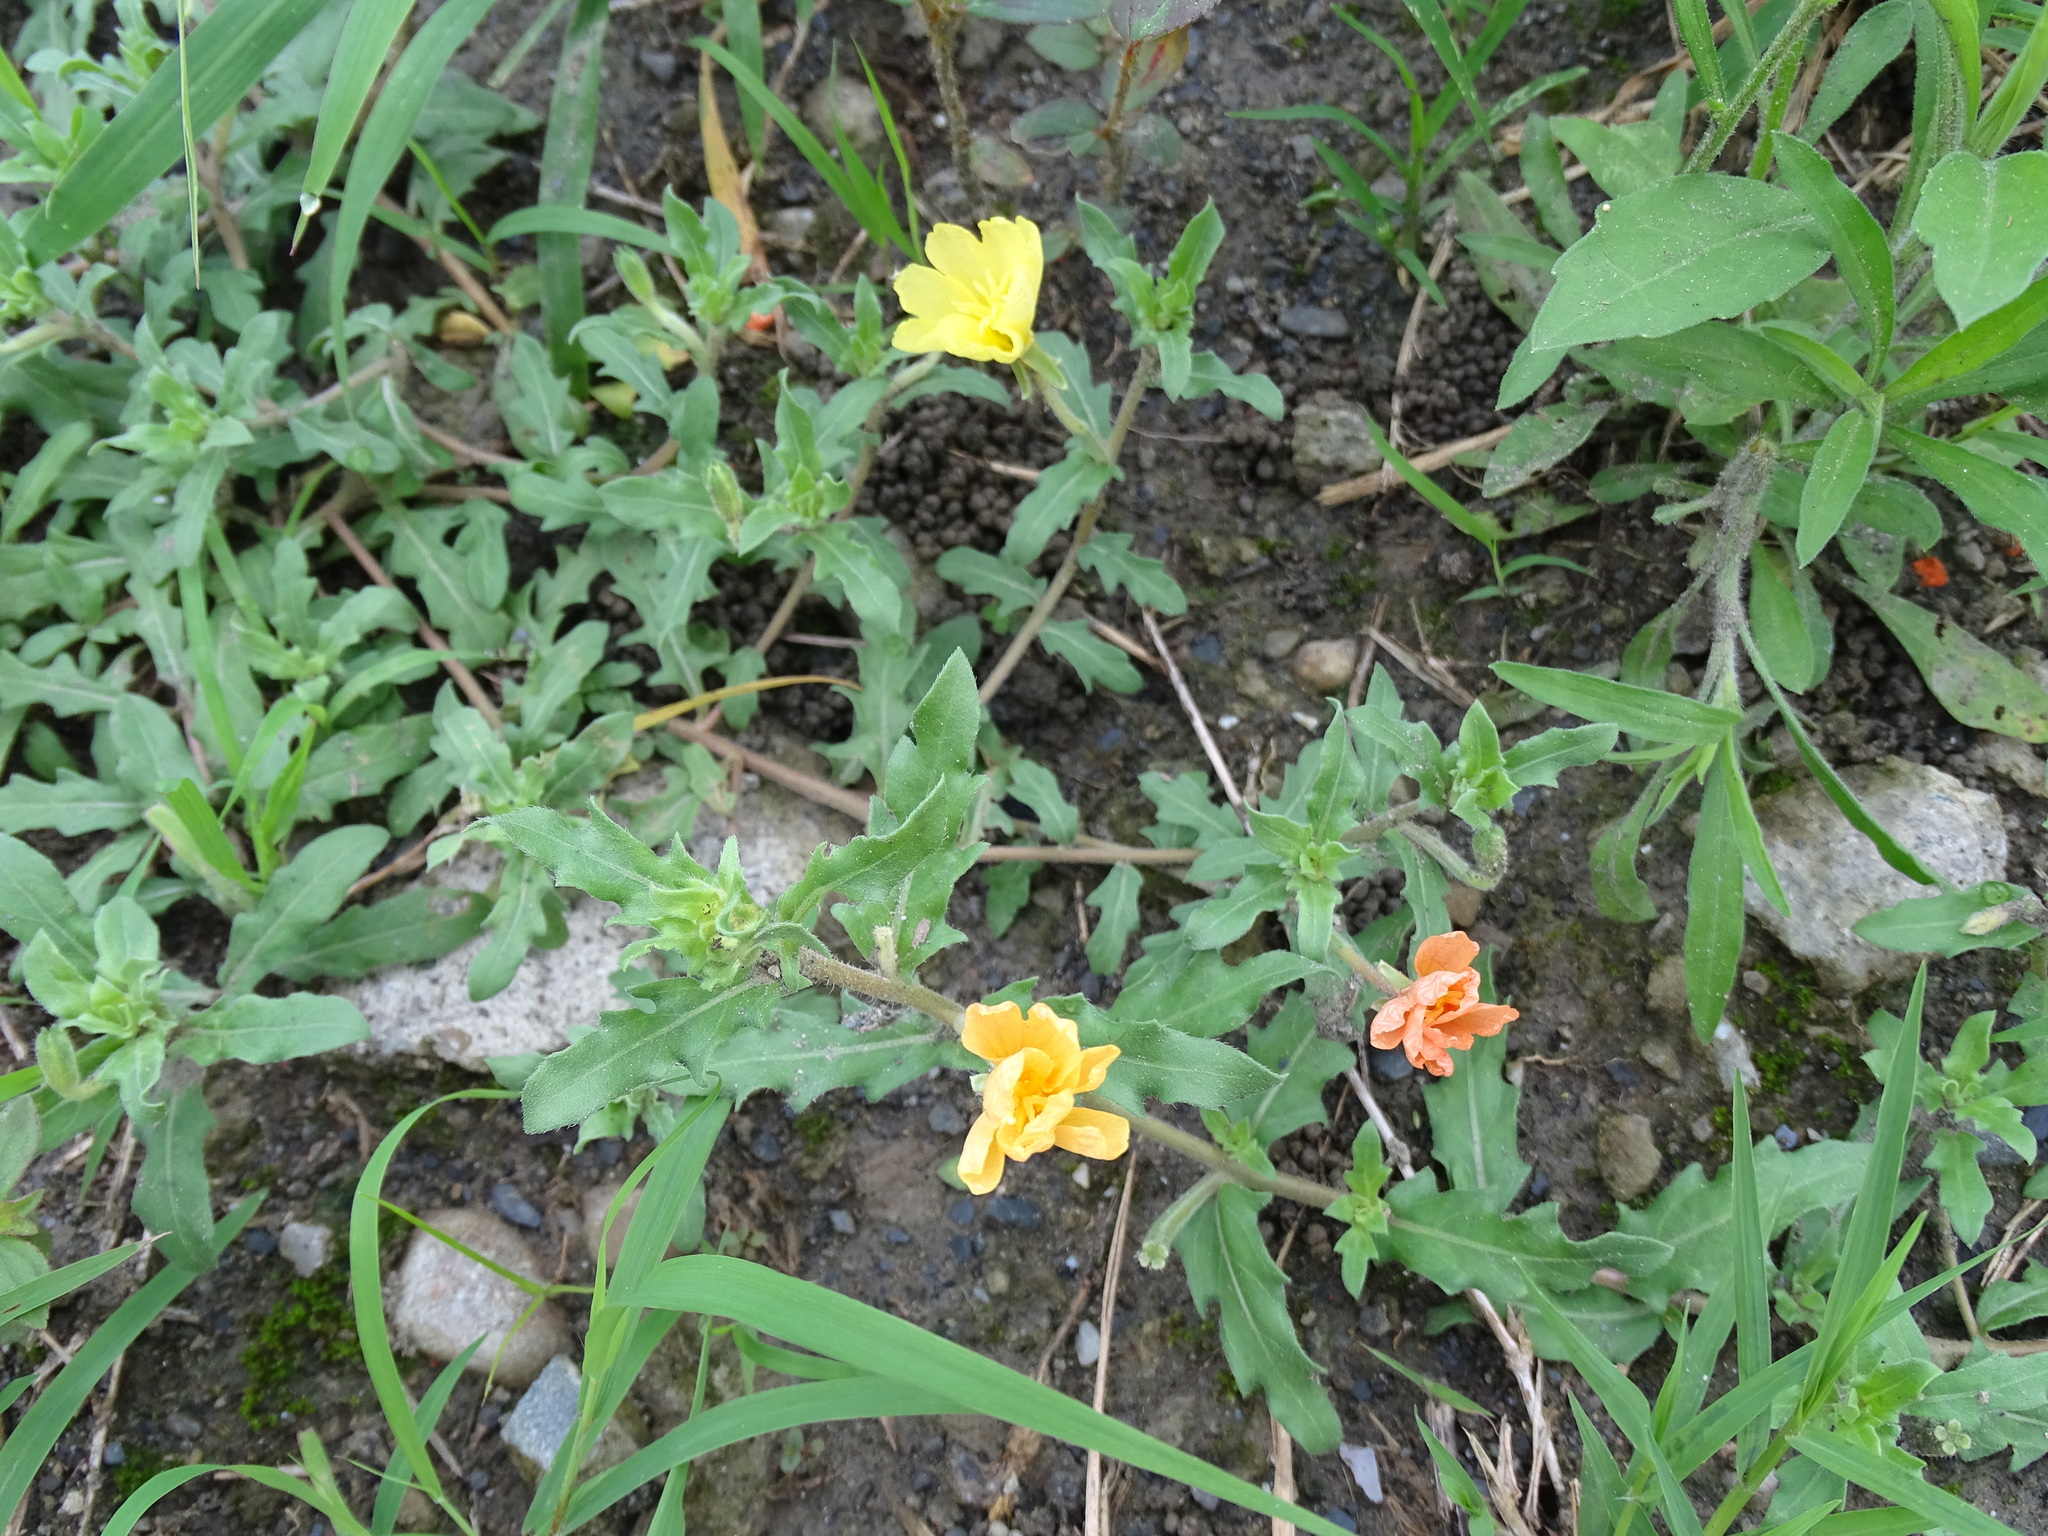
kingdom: Plantae
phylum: Tracheophyta
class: Magnoliopsida
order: Myrtales
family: Onagraceae
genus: Oenothera
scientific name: Oenothera laciniata
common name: Cut-leaved evening-primrose
